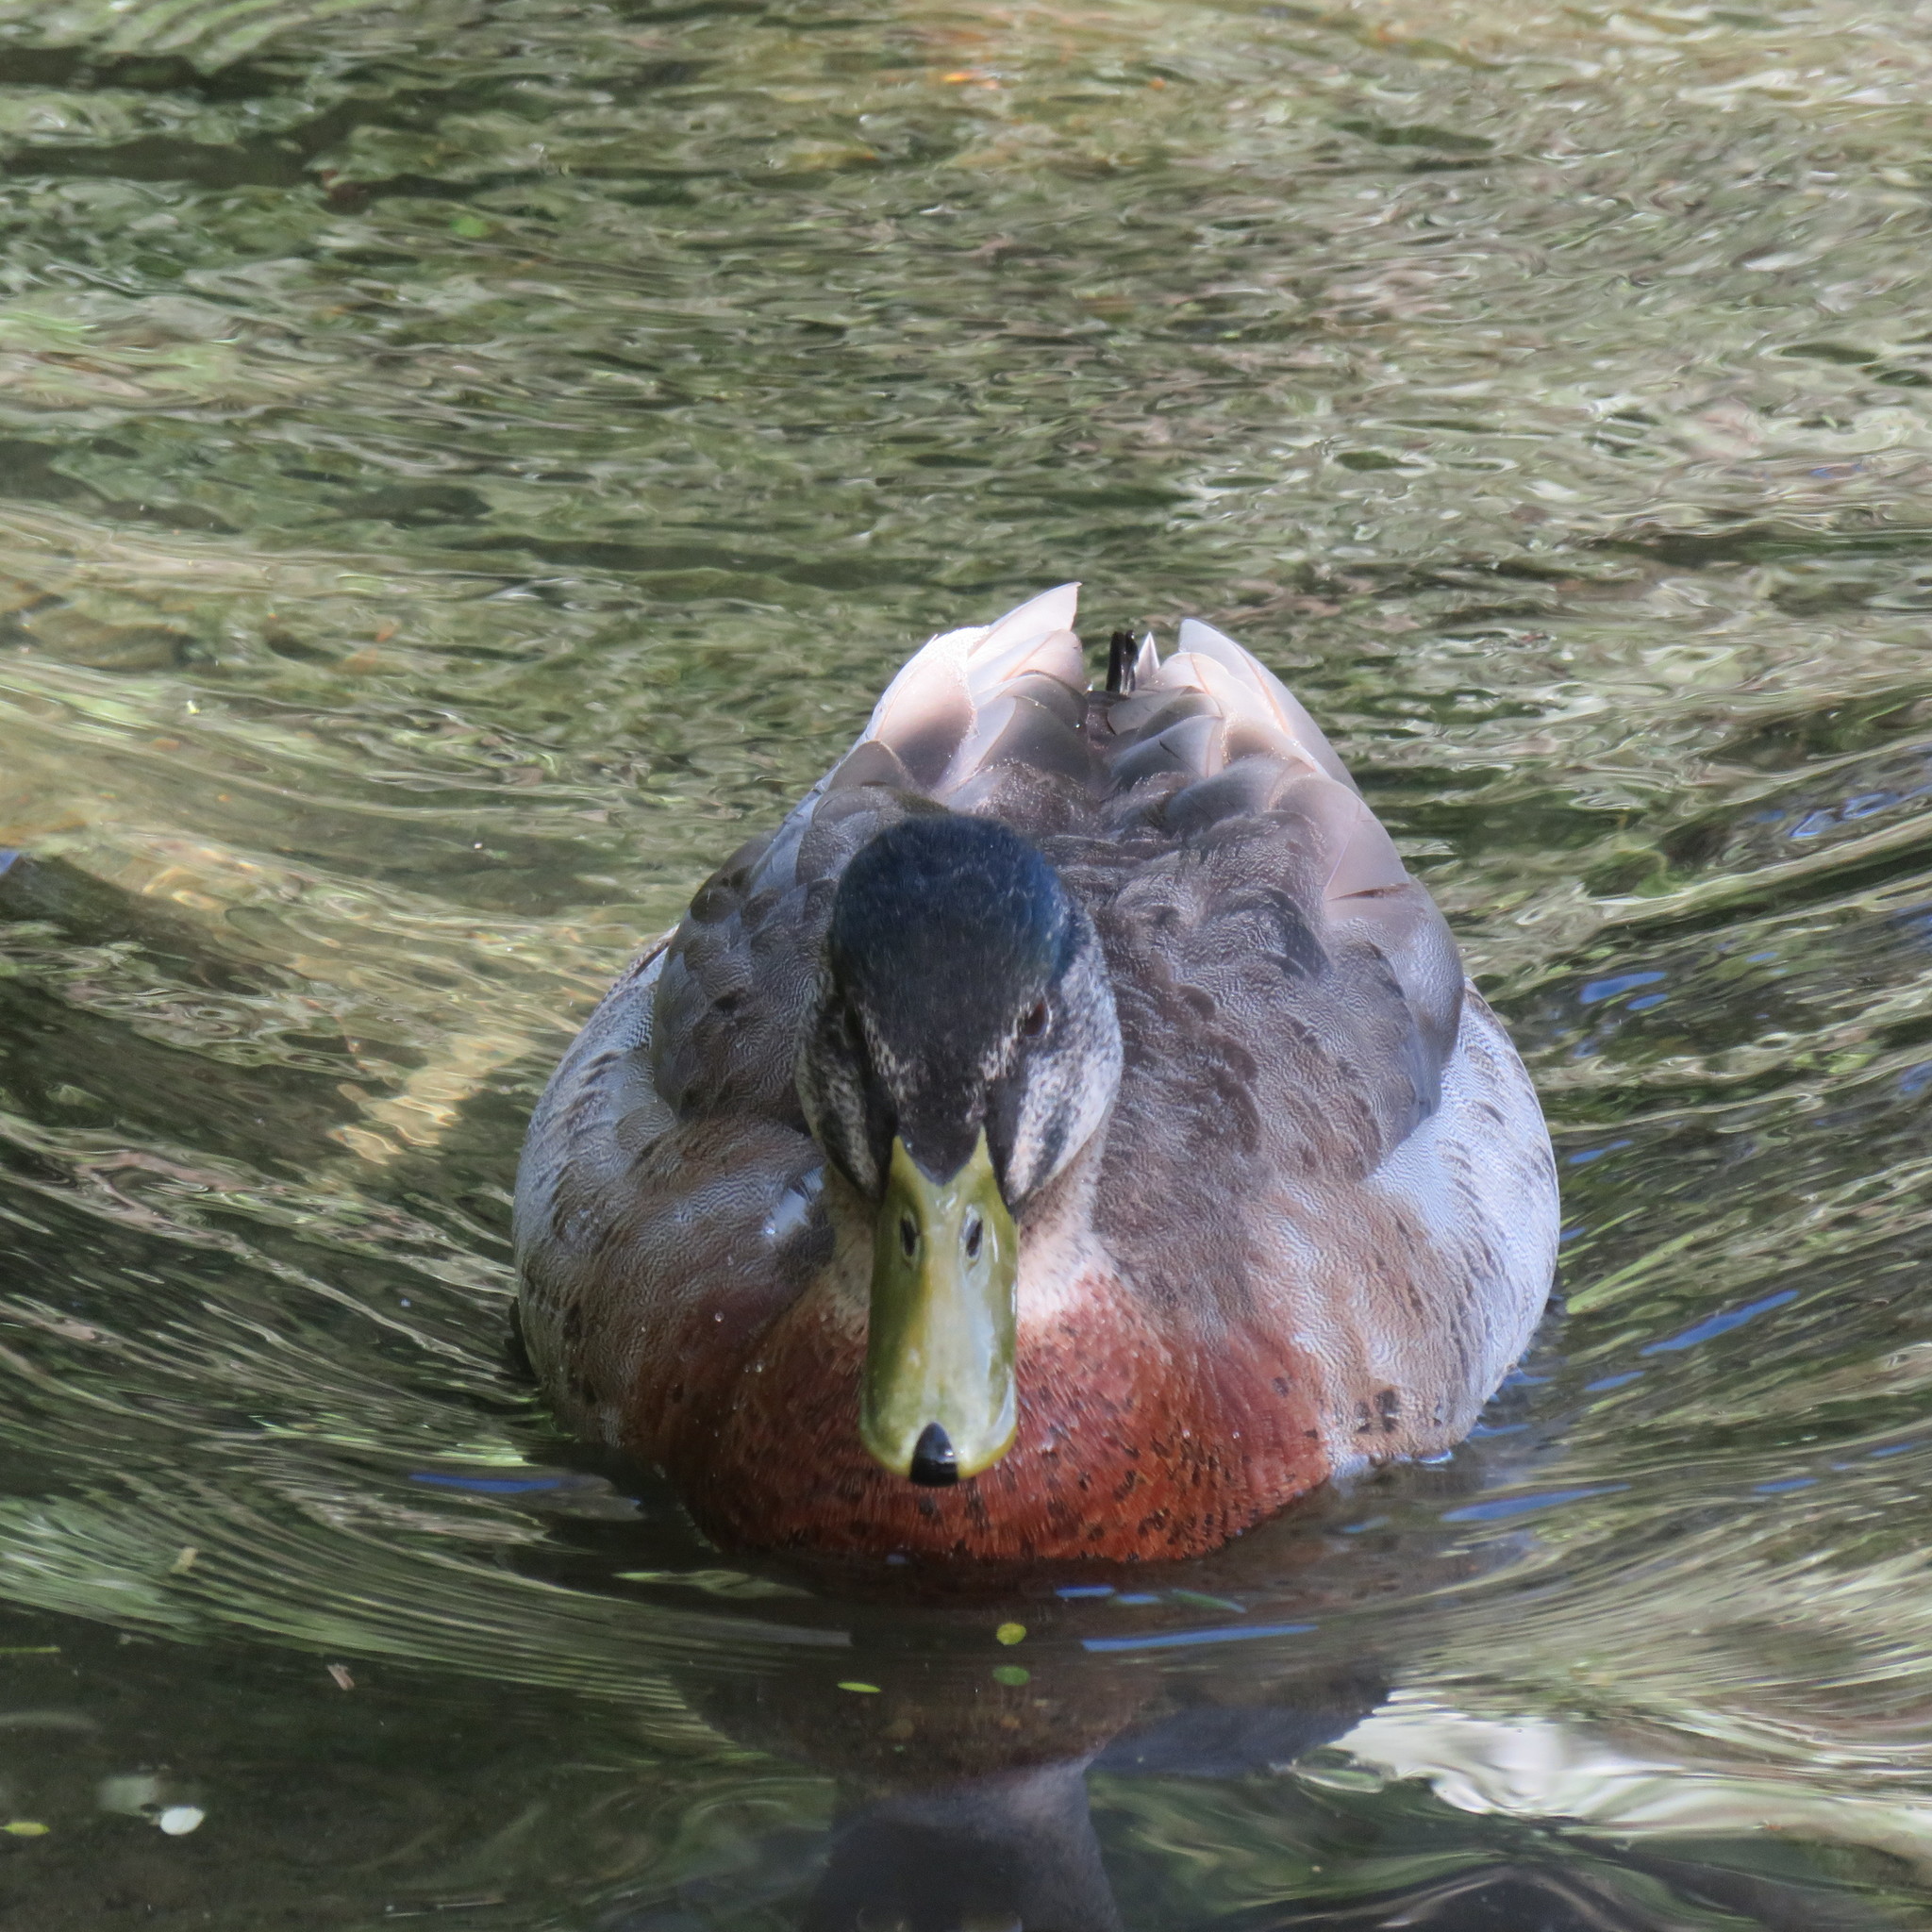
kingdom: Animalia
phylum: Chordata
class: Aves
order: Anseriformes
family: Anatidae
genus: Anas
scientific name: Anas
